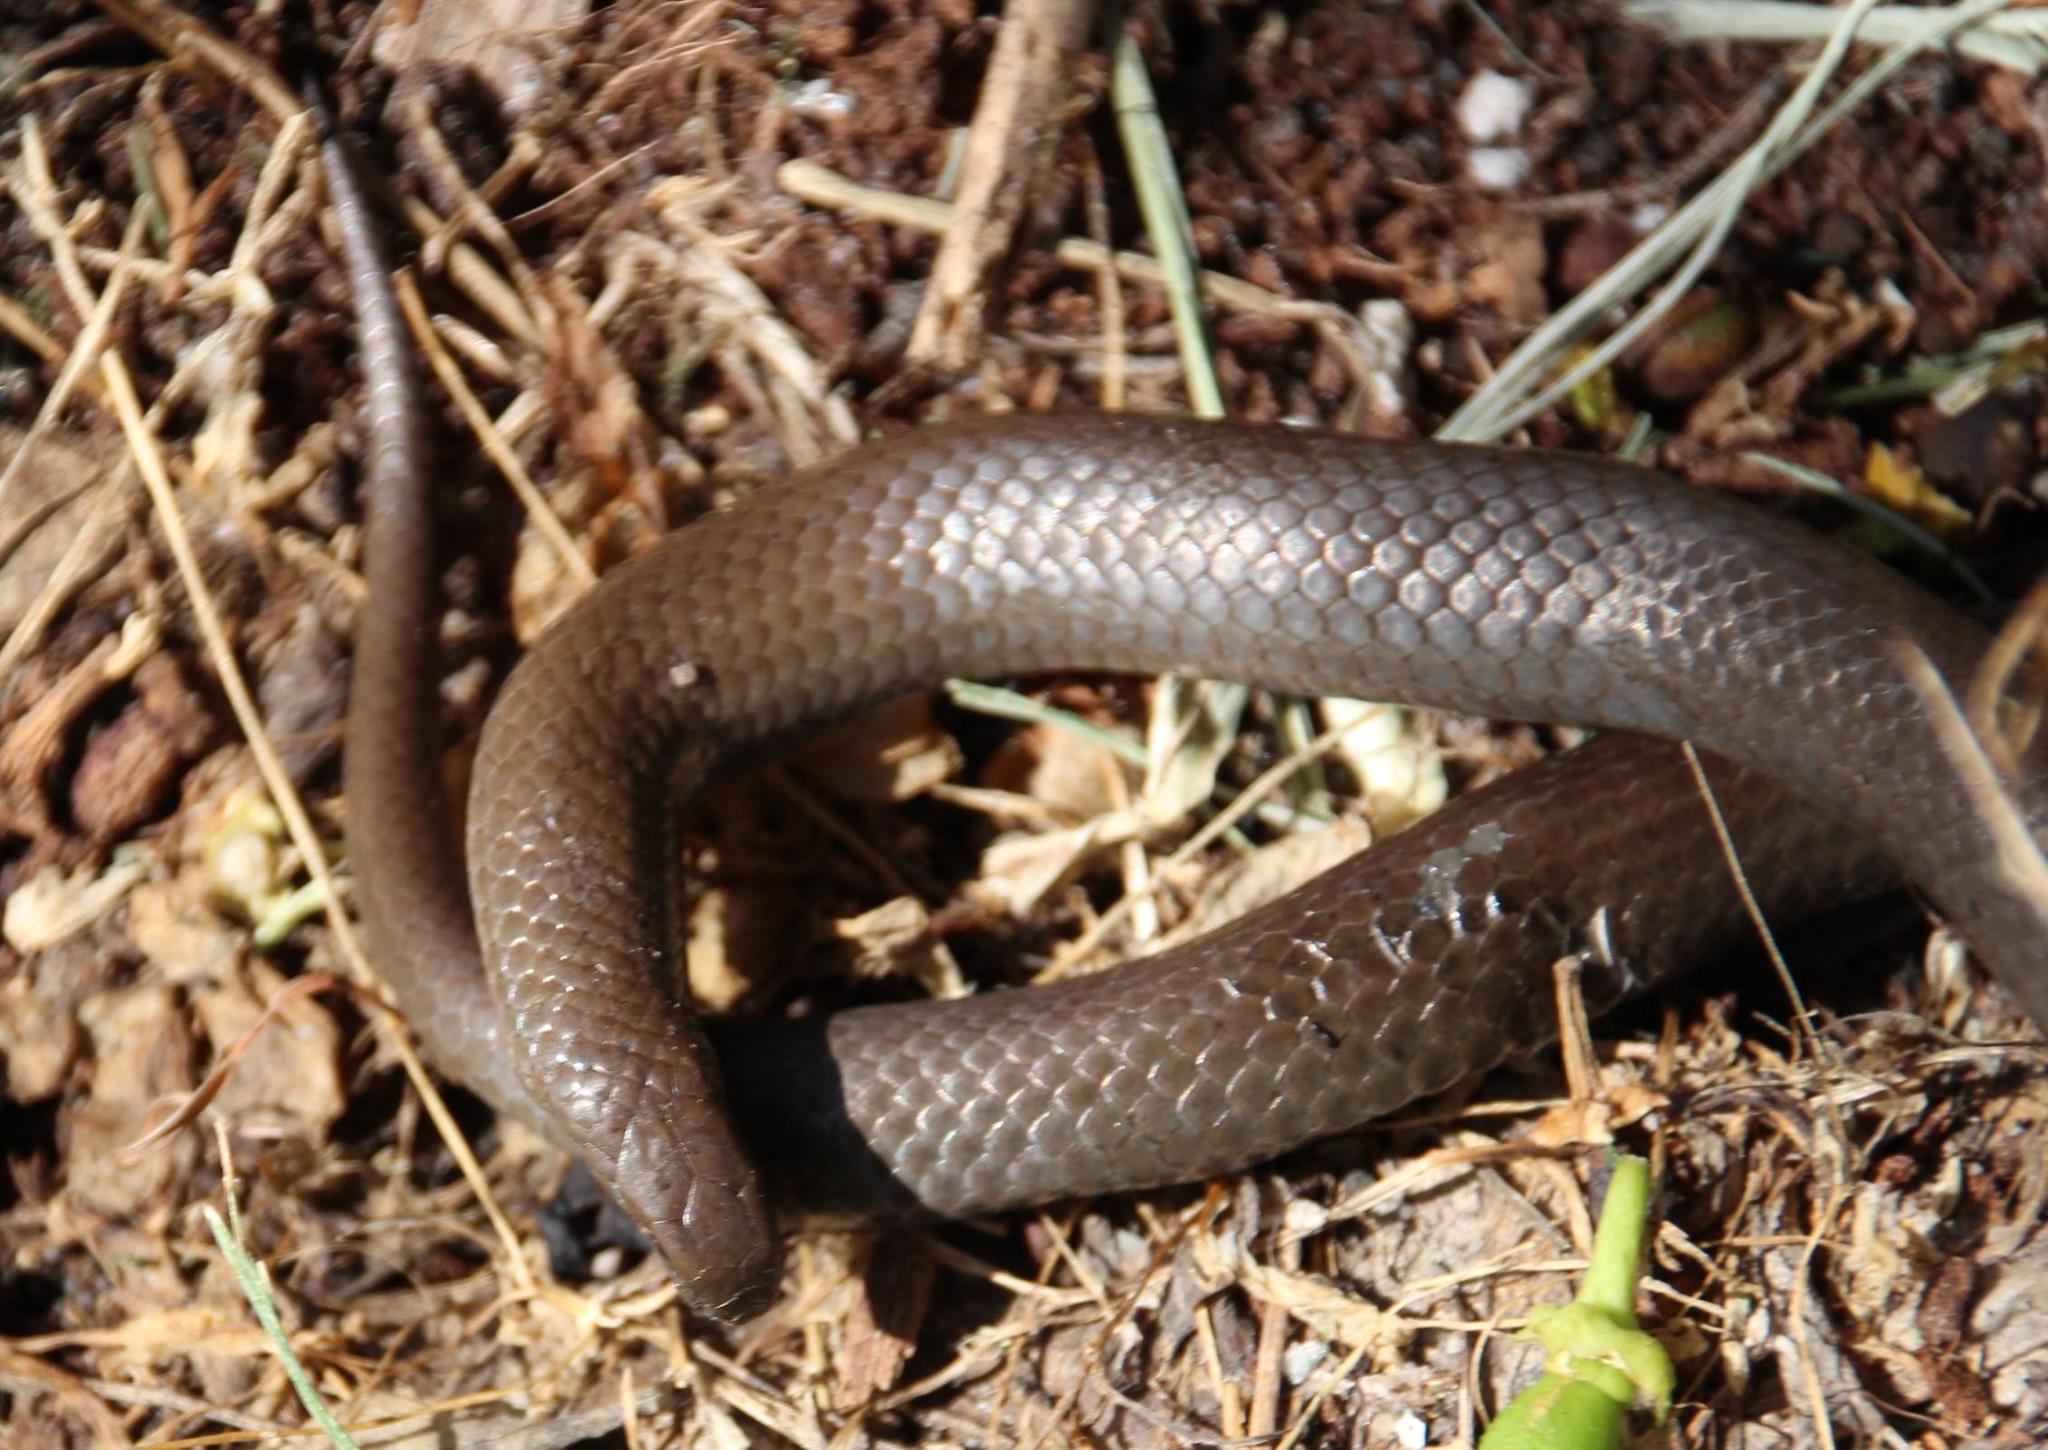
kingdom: Animalia
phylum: Chordata
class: Squamata
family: Pseudoxyrhophiidae
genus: Duberria
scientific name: Duberria lutrix
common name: Common slug eater
